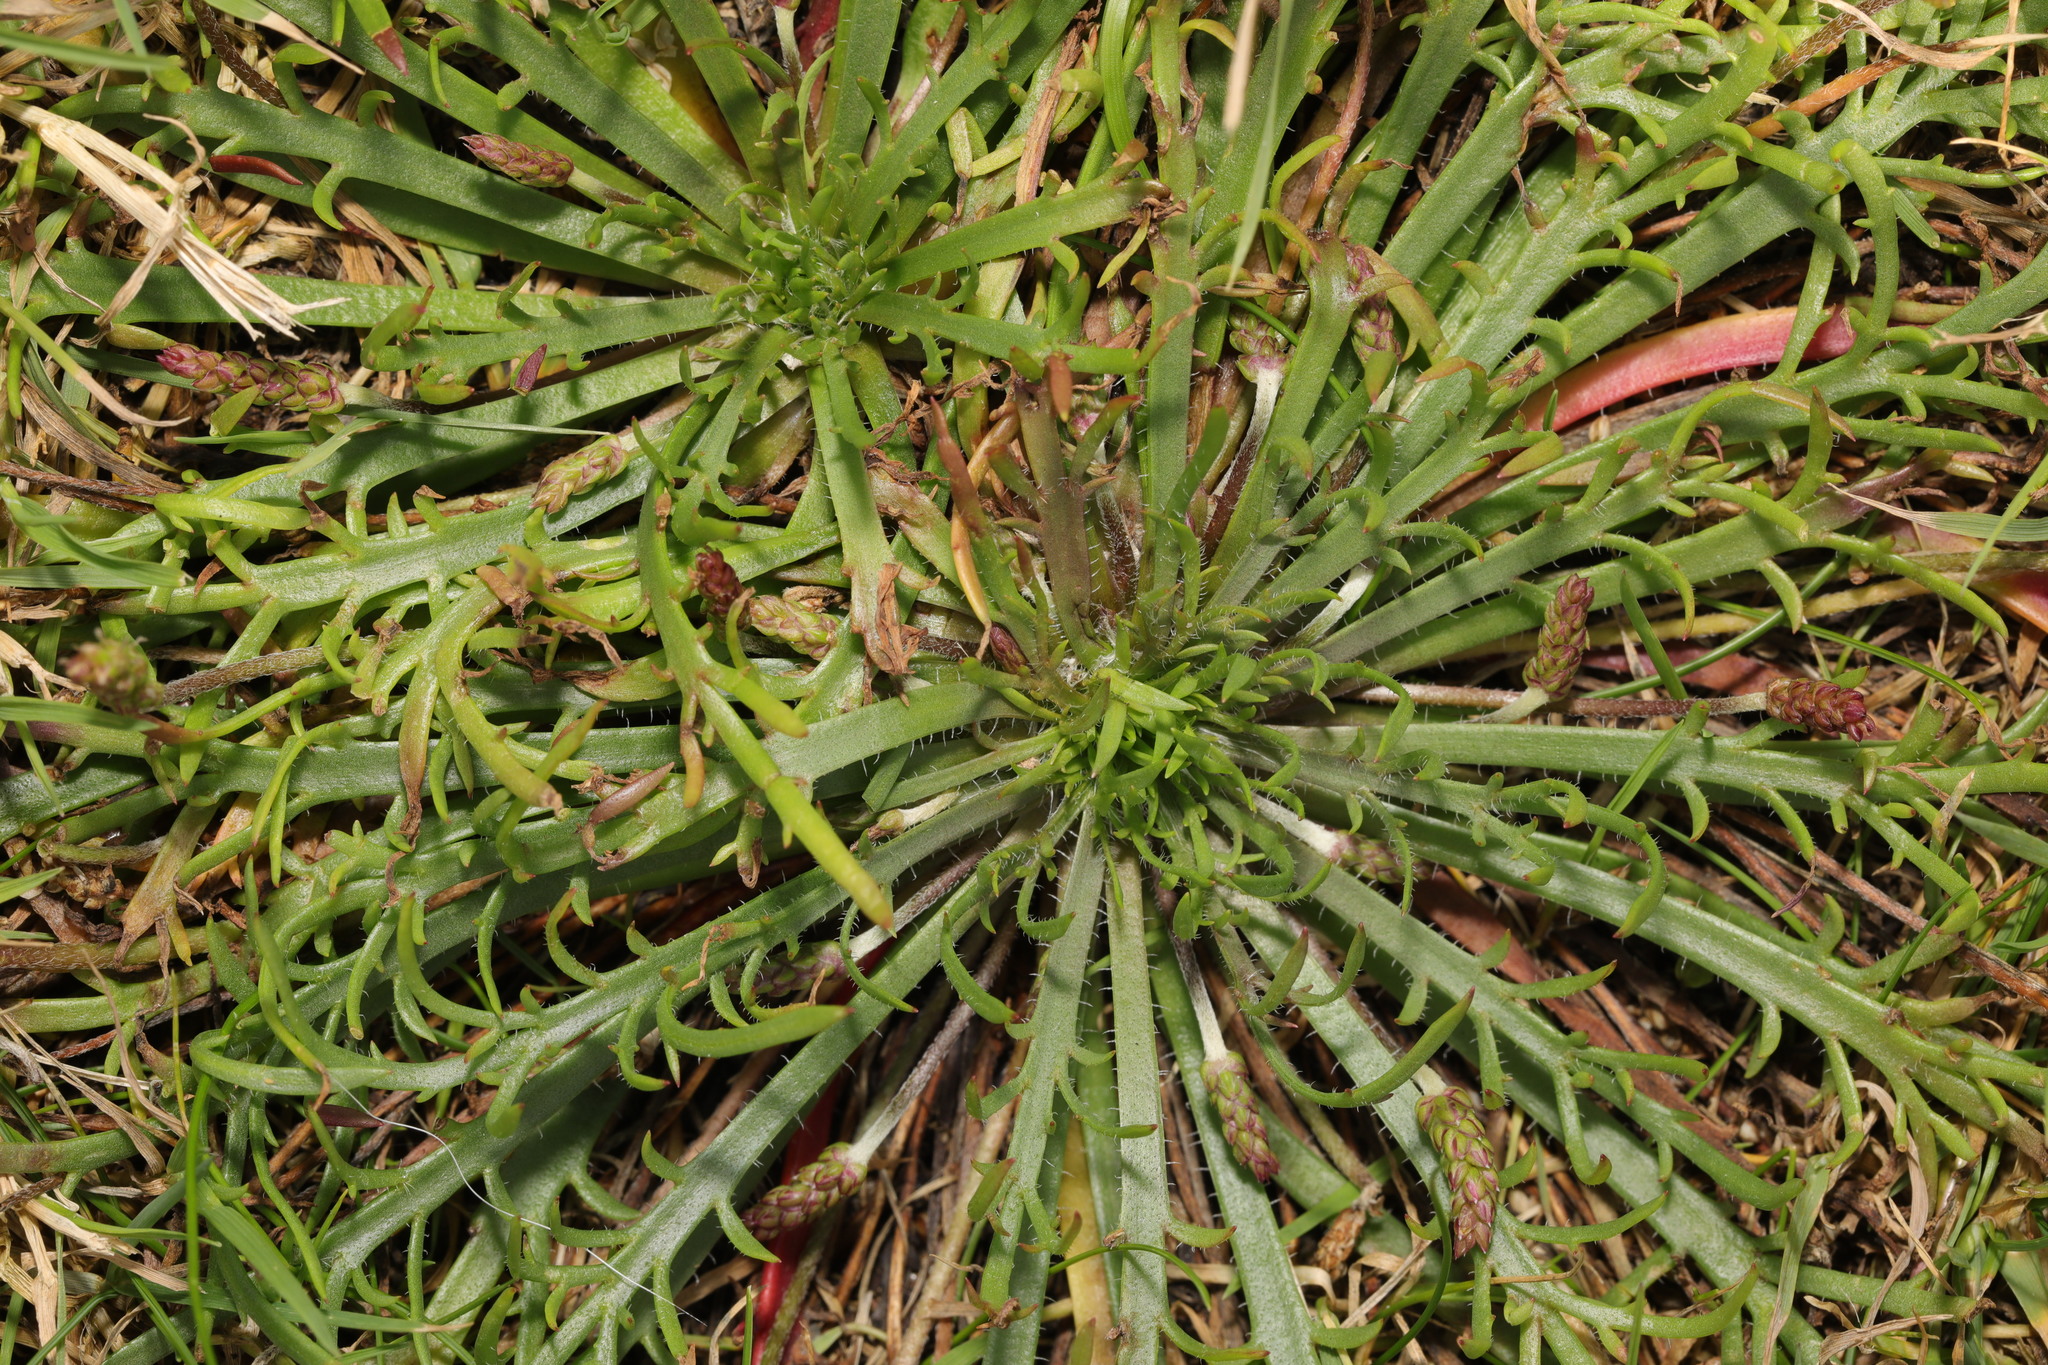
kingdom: Plantae
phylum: Tracheophyta
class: Magnoliopsida
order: Lamiales
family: Plantaginaceae
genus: Plantago
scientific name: Plantago coronopus
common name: Buck's-horn plantain
